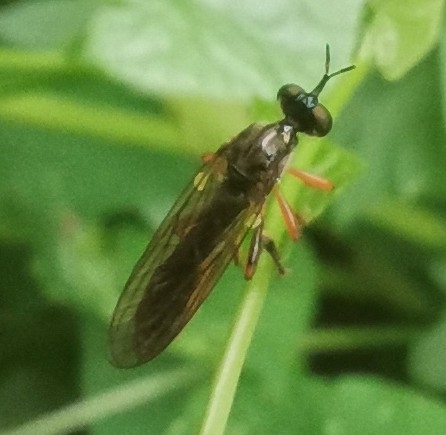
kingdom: Animalia
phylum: Arthropoda
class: Insecta
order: Diptera
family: Asilidae
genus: Dioctria
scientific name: Dioctria hyalipennis
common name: Stripe-legged robberfly
